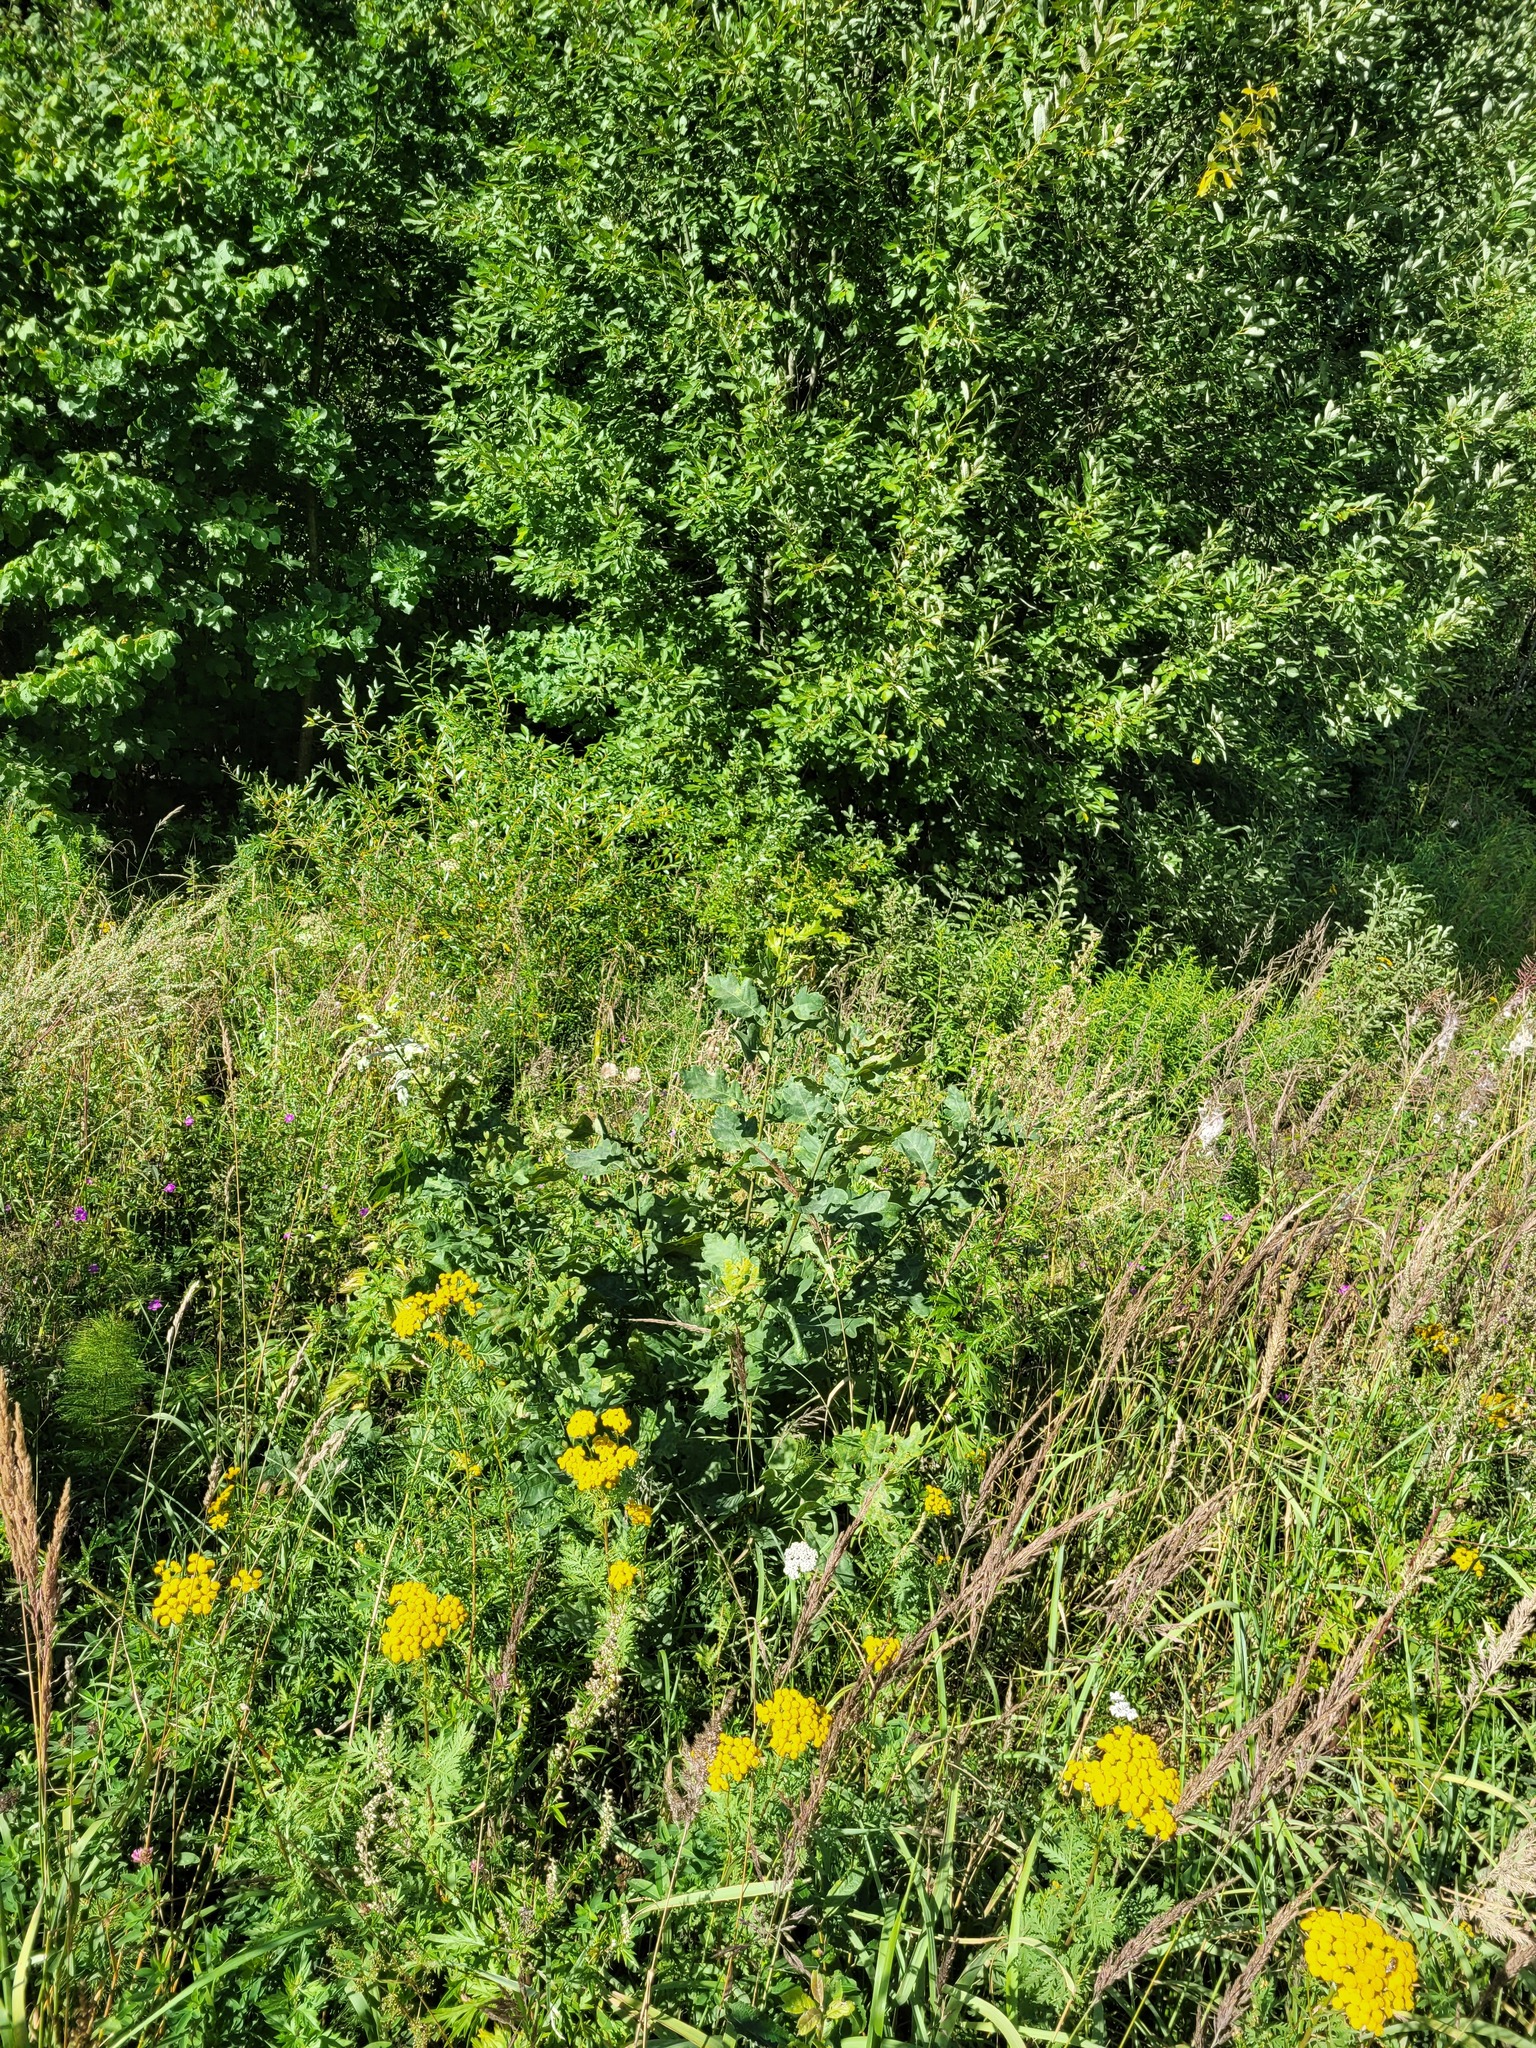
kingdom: Plantae
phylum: Tracheophyta
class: Magnoliopsida
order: Fagales
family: Fagaceae
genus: Quercus
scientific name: Quercus robur
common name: Pedunculate oak
